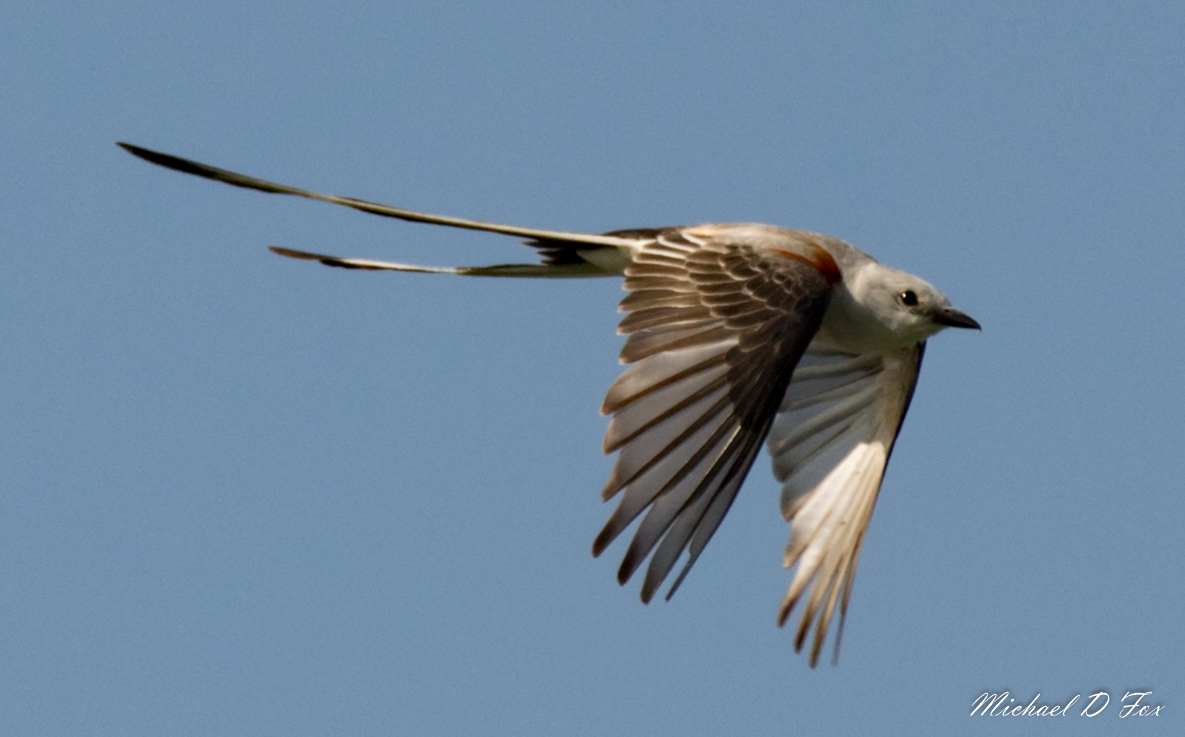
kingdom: Animalia
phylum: Chordata
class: Aves
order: Passeriformes
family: Tyrannidae
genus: Tyrannus
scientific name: Tyrannus forficatus
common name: Scissor-tailed flycatcher
